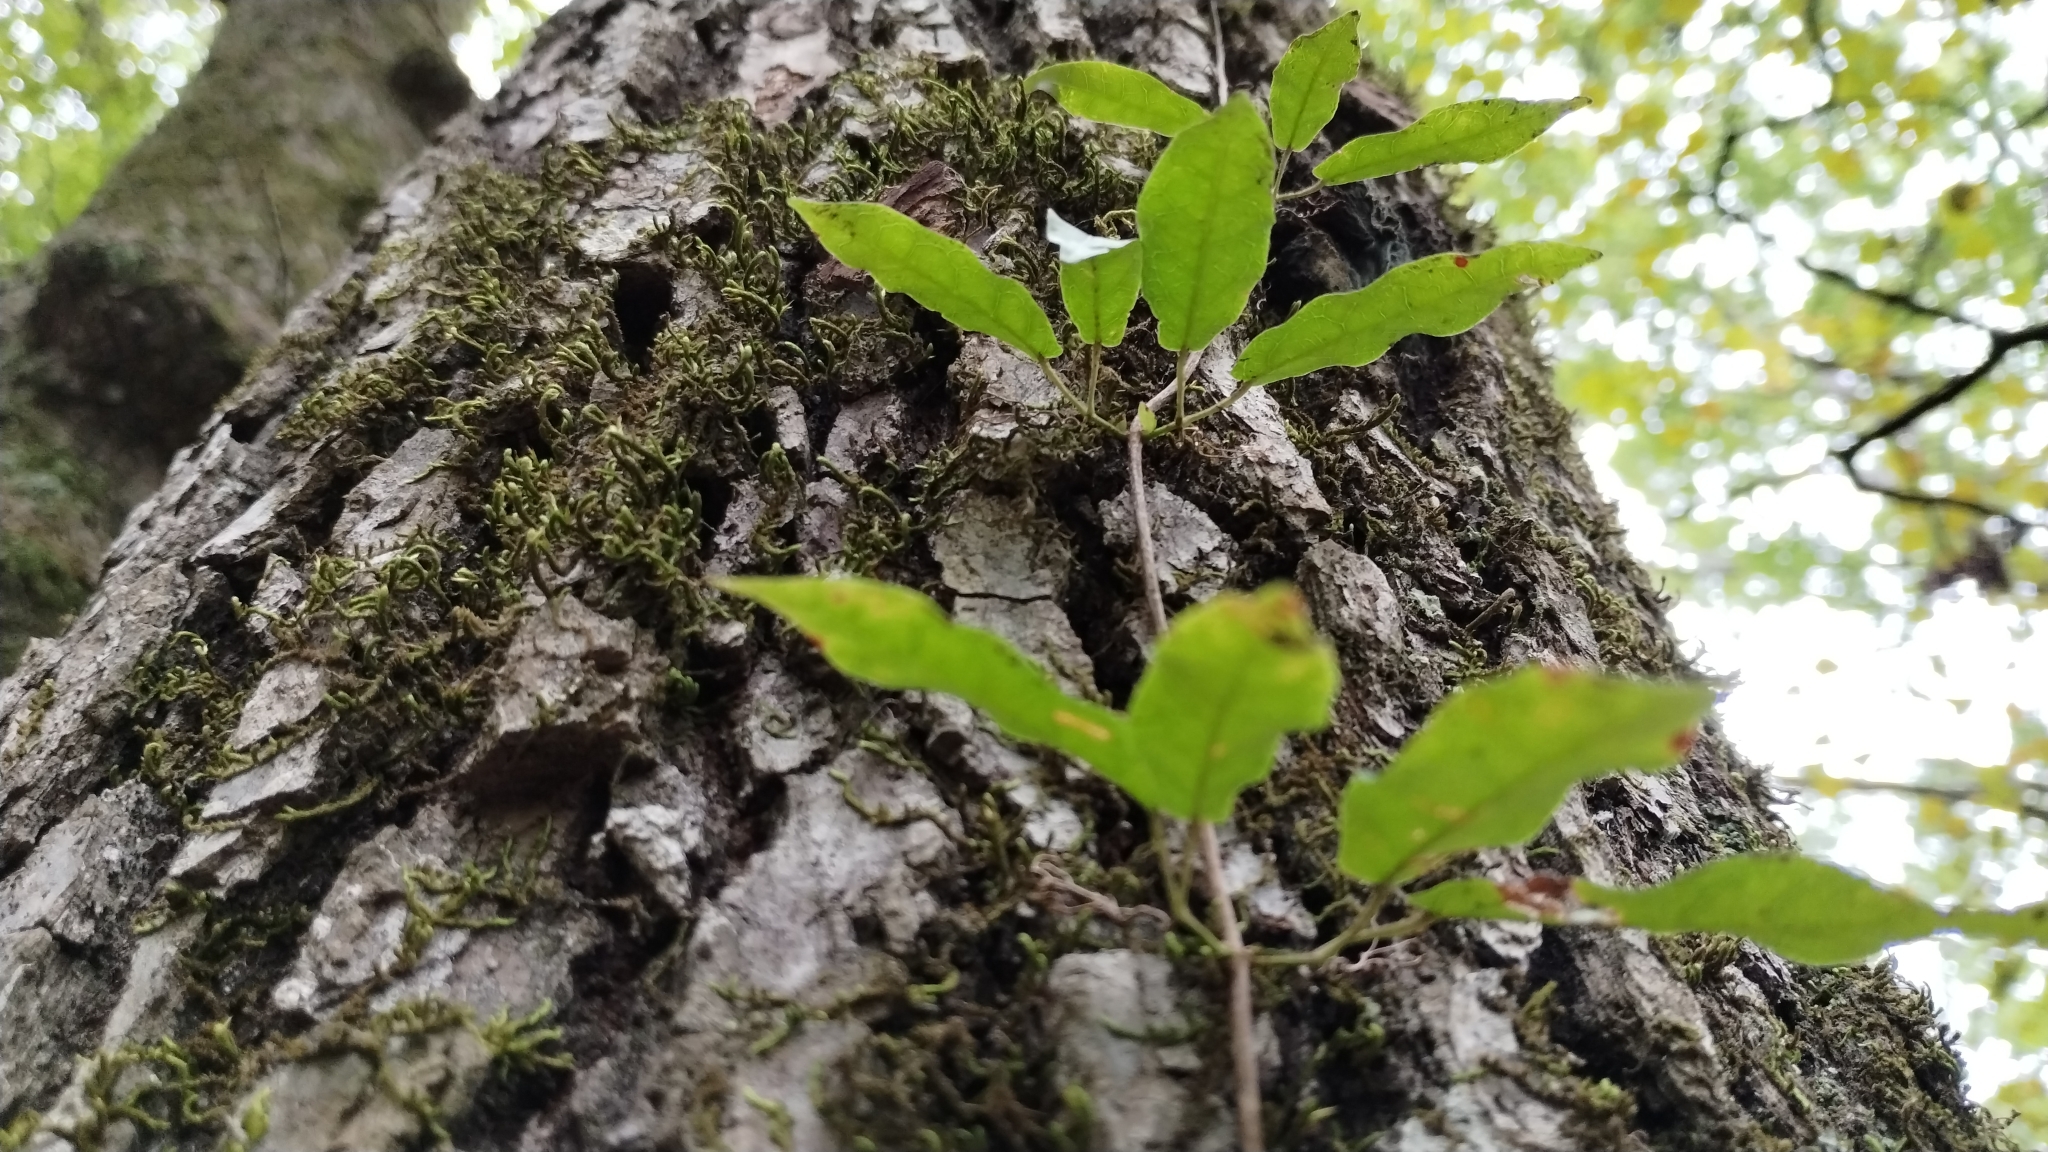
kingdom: Plantae
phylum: Tracheophyta
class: Magnoliopsida
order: Lamiales
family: Bignoniaceae
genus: Bignonia
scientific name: Bignonia capreolata
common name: Crossvine
